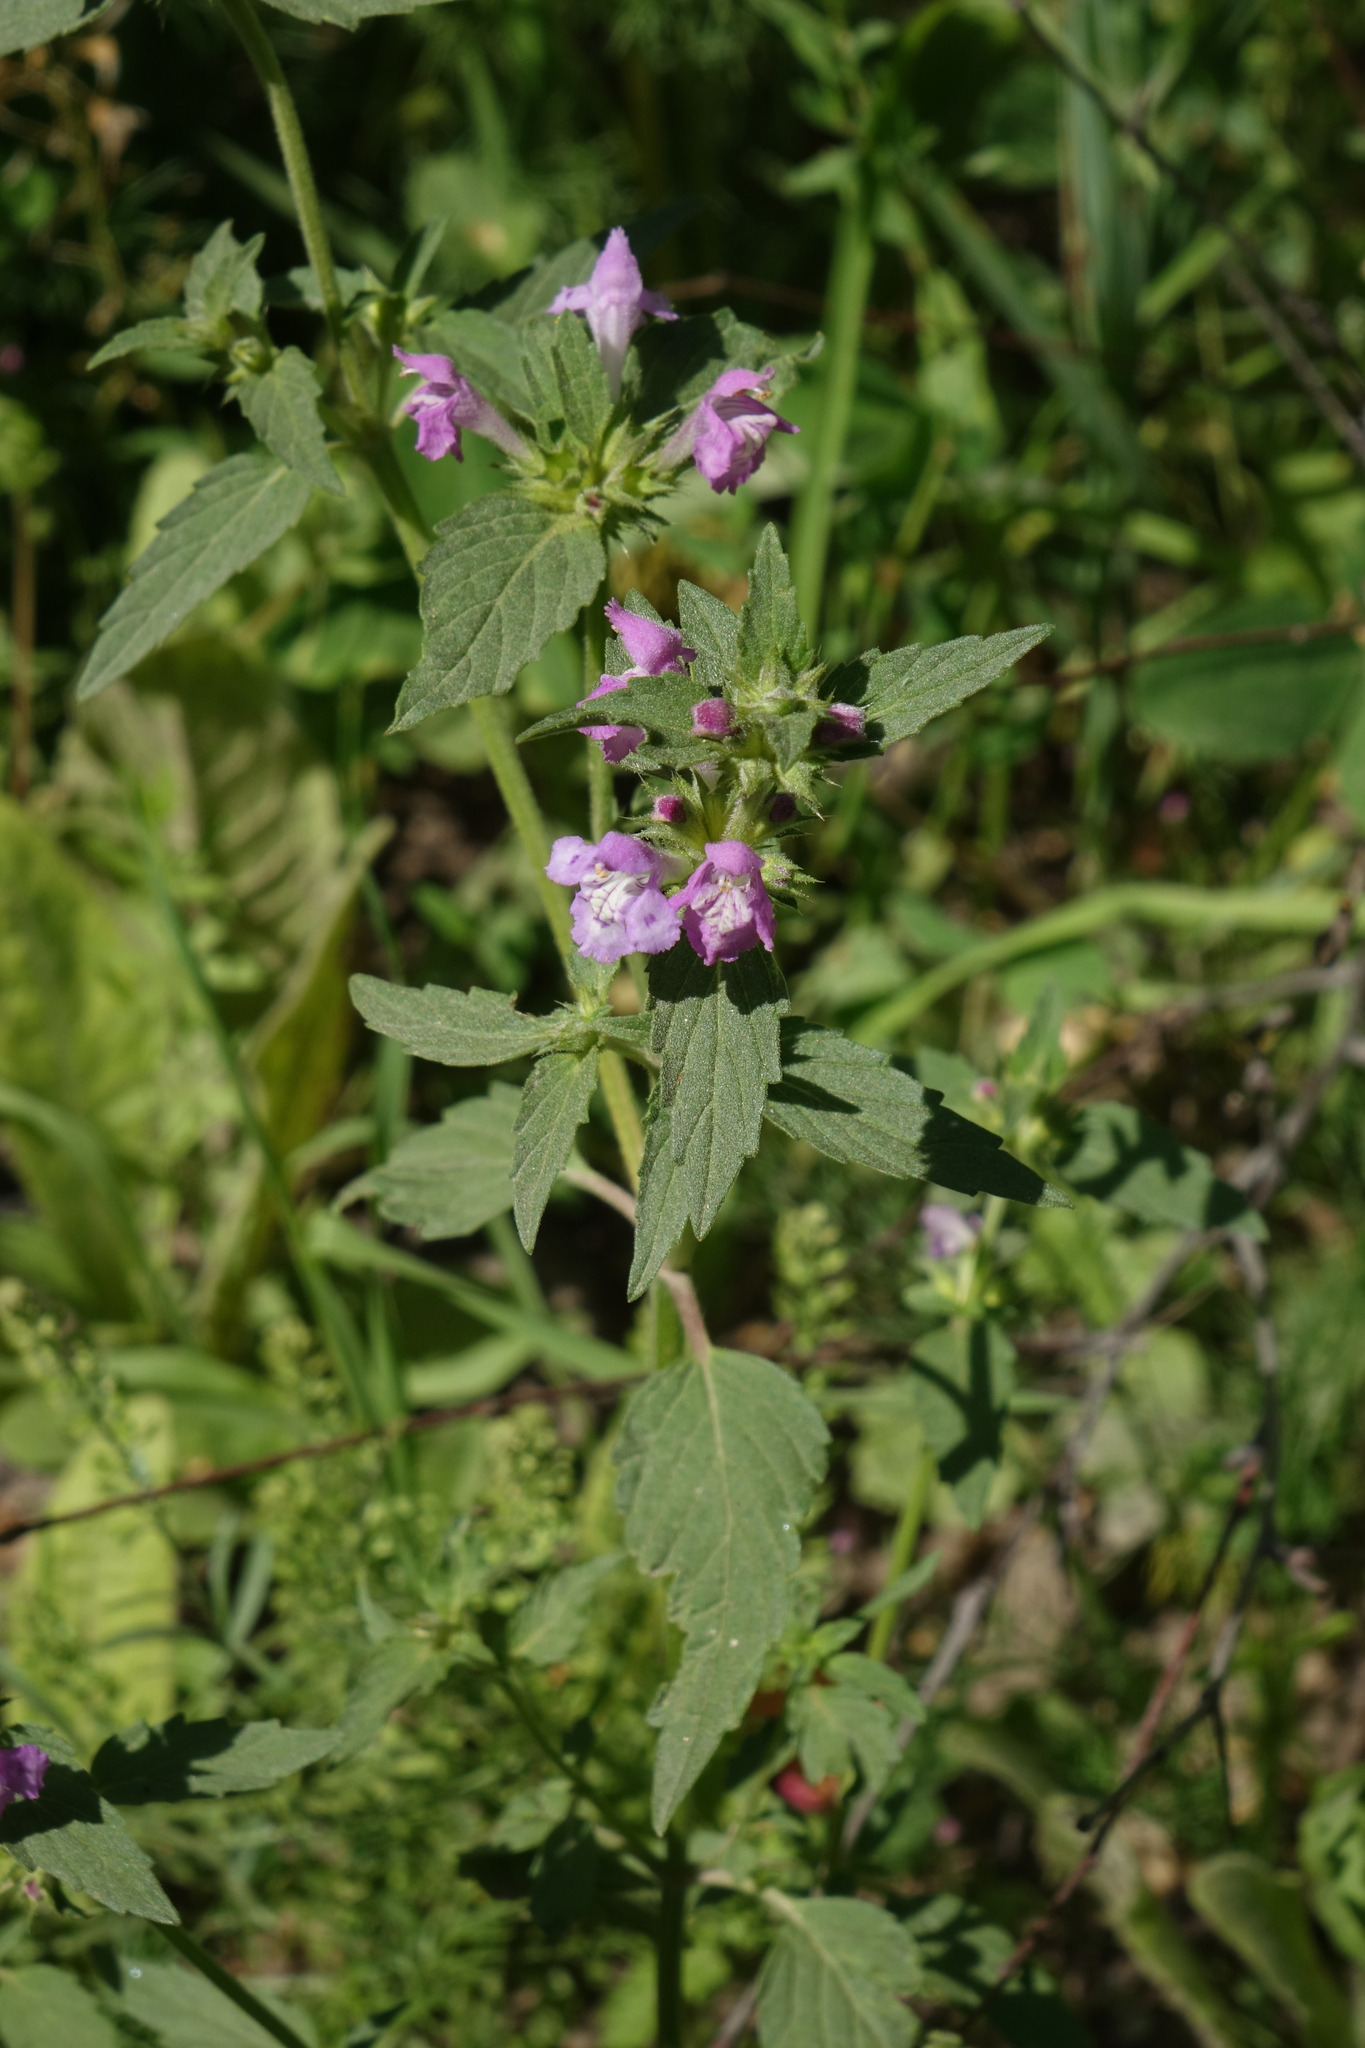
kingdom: Plantae
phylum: Tracheophyta
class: Magnoliopsida
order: Lamiales
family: Lamiaceae
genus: Galeopsis
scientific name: Galeopsis bifida
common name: Bifid hemp-nettle
